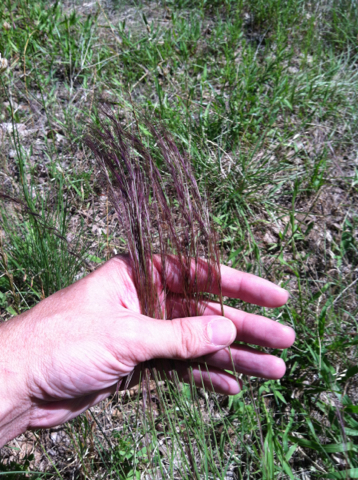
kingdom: Plantae
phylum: Tracheophyta
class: Liliopsida
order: Poales
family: Poaceae
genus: Aristida
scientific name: Aristida purpurea
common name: Purple threeawn
